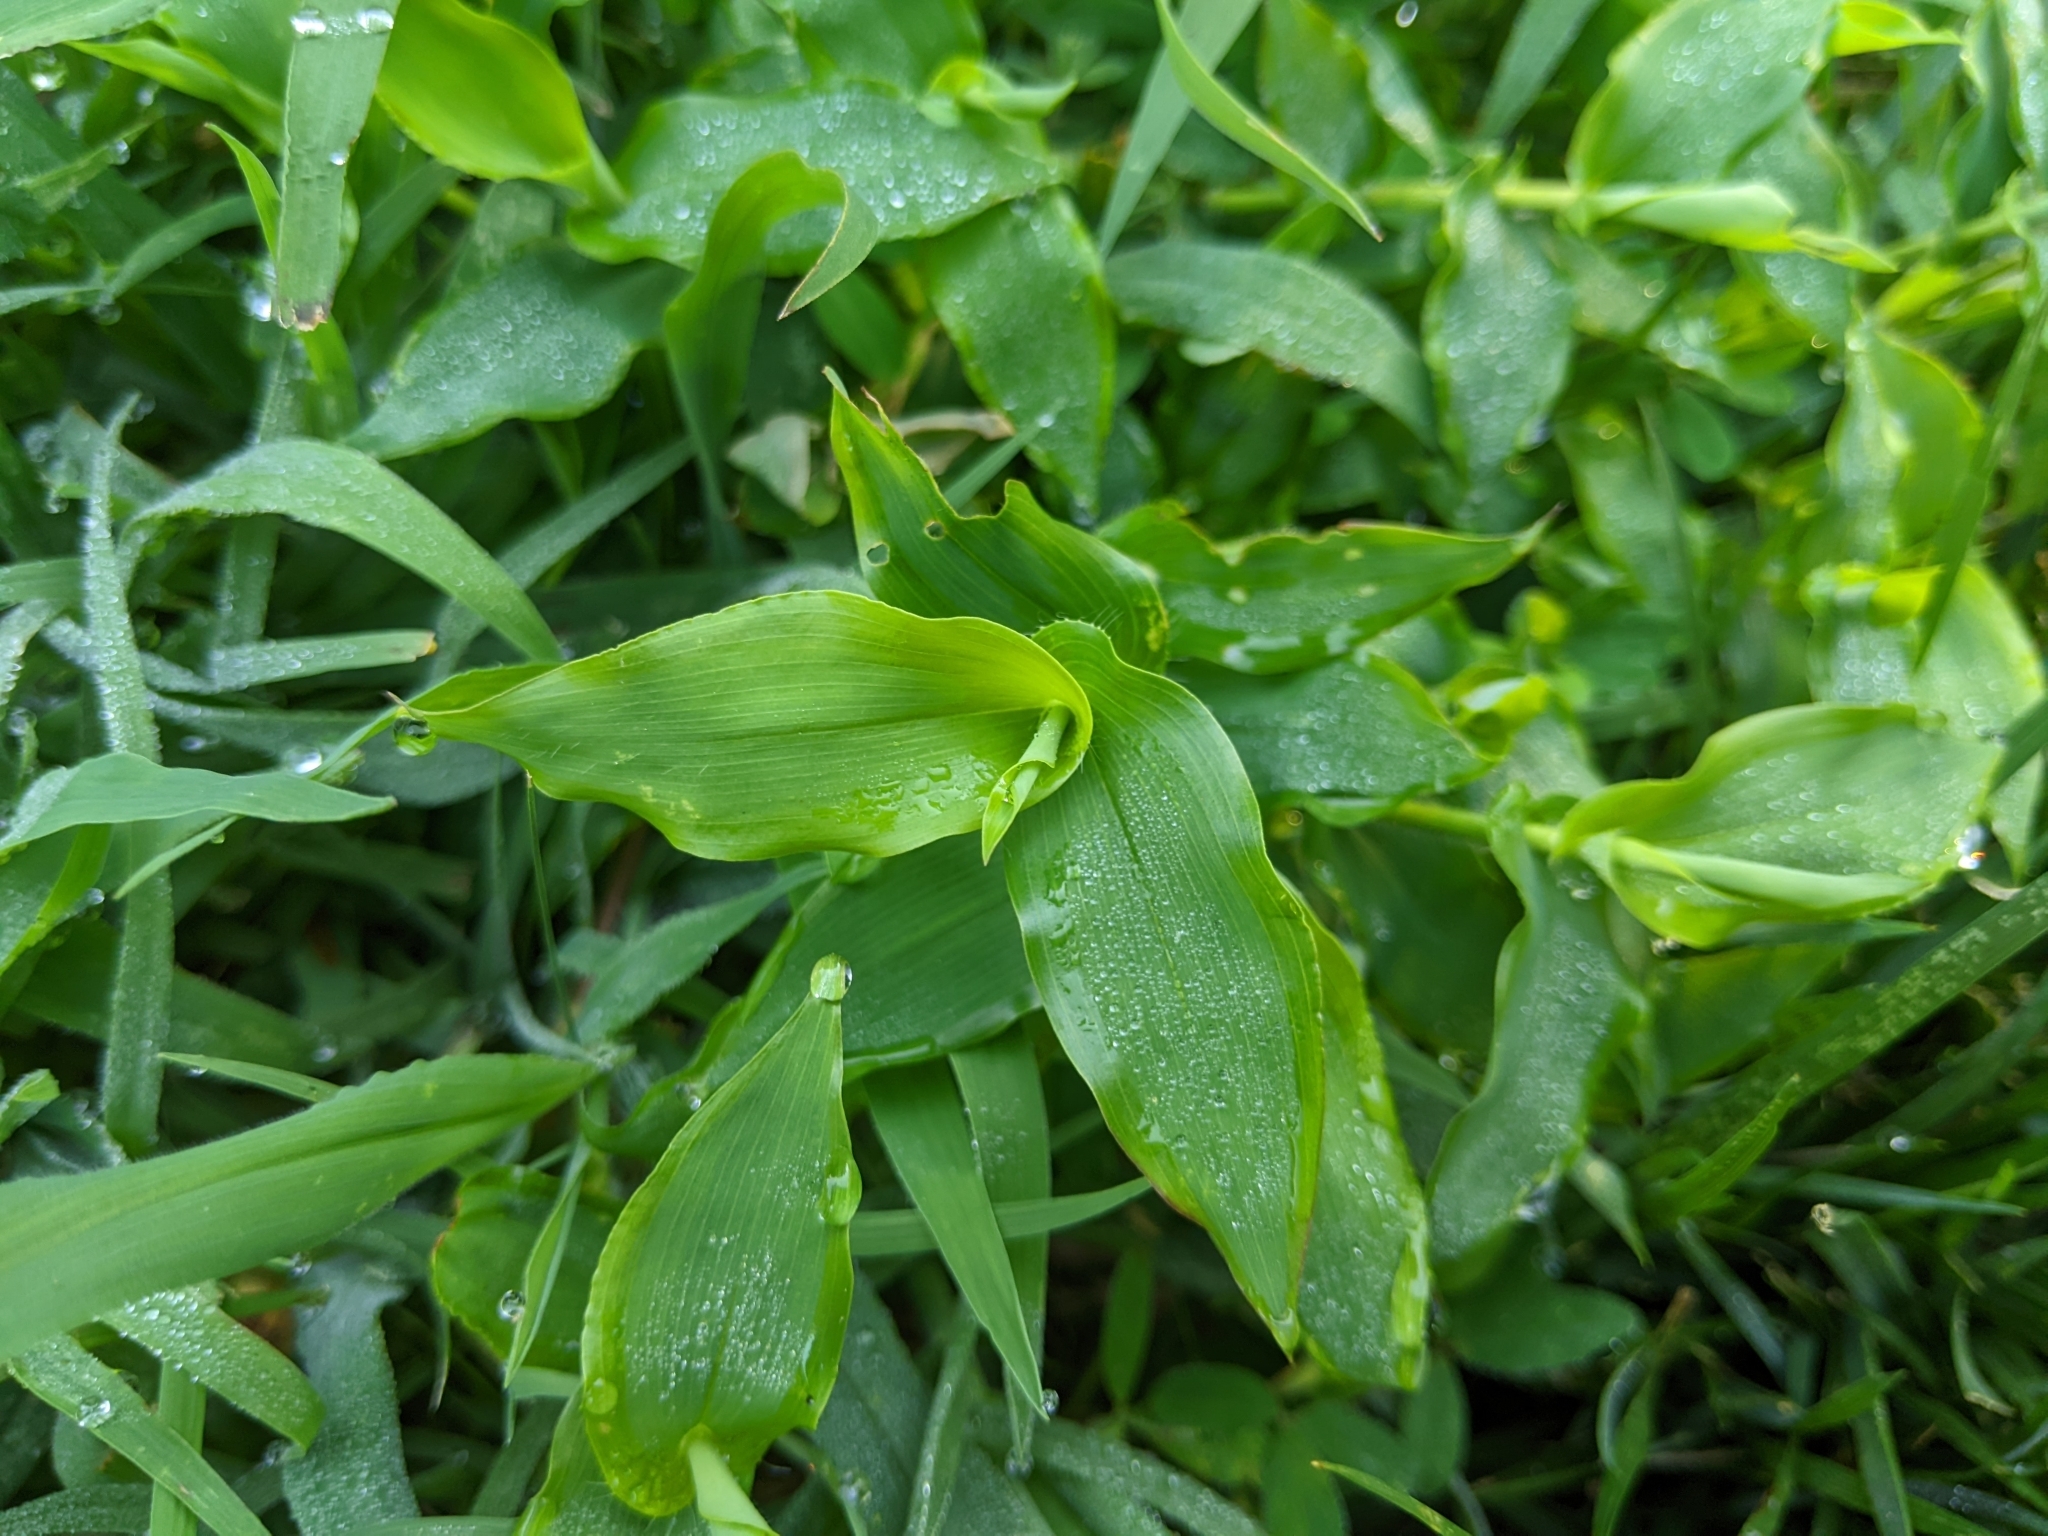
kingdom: Plantae
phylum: Tracheophyta
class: Liliopsida
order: Poales
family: Poaceae
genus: Arthraxon
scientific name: Arthraxon hispidus
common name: Small carpgrass
